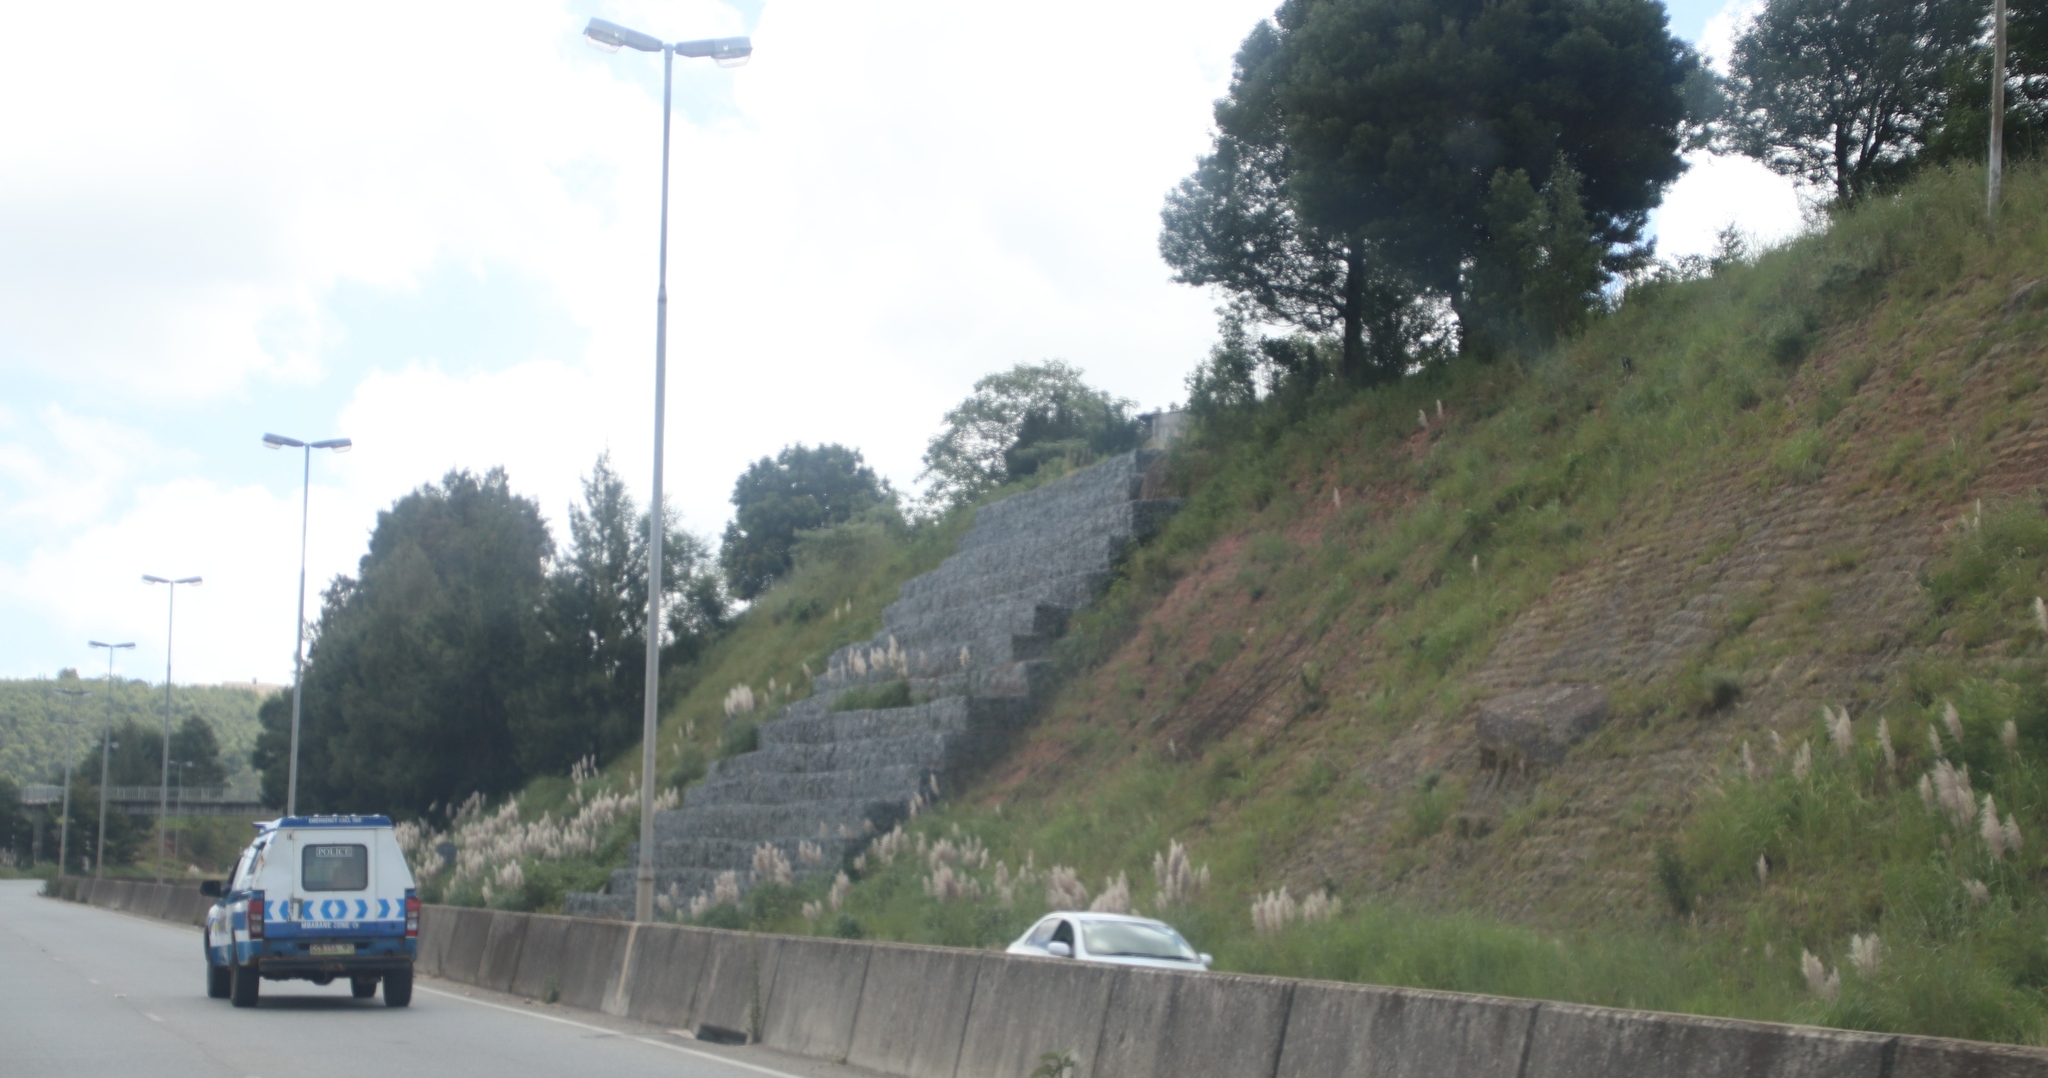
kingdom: Plantae
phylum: Tracheophyta
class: Liliopsida
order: Poales
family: Poaceae
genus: Cortaderia
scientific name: Cortaderia selloana
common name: Uruguayan pampas grass
